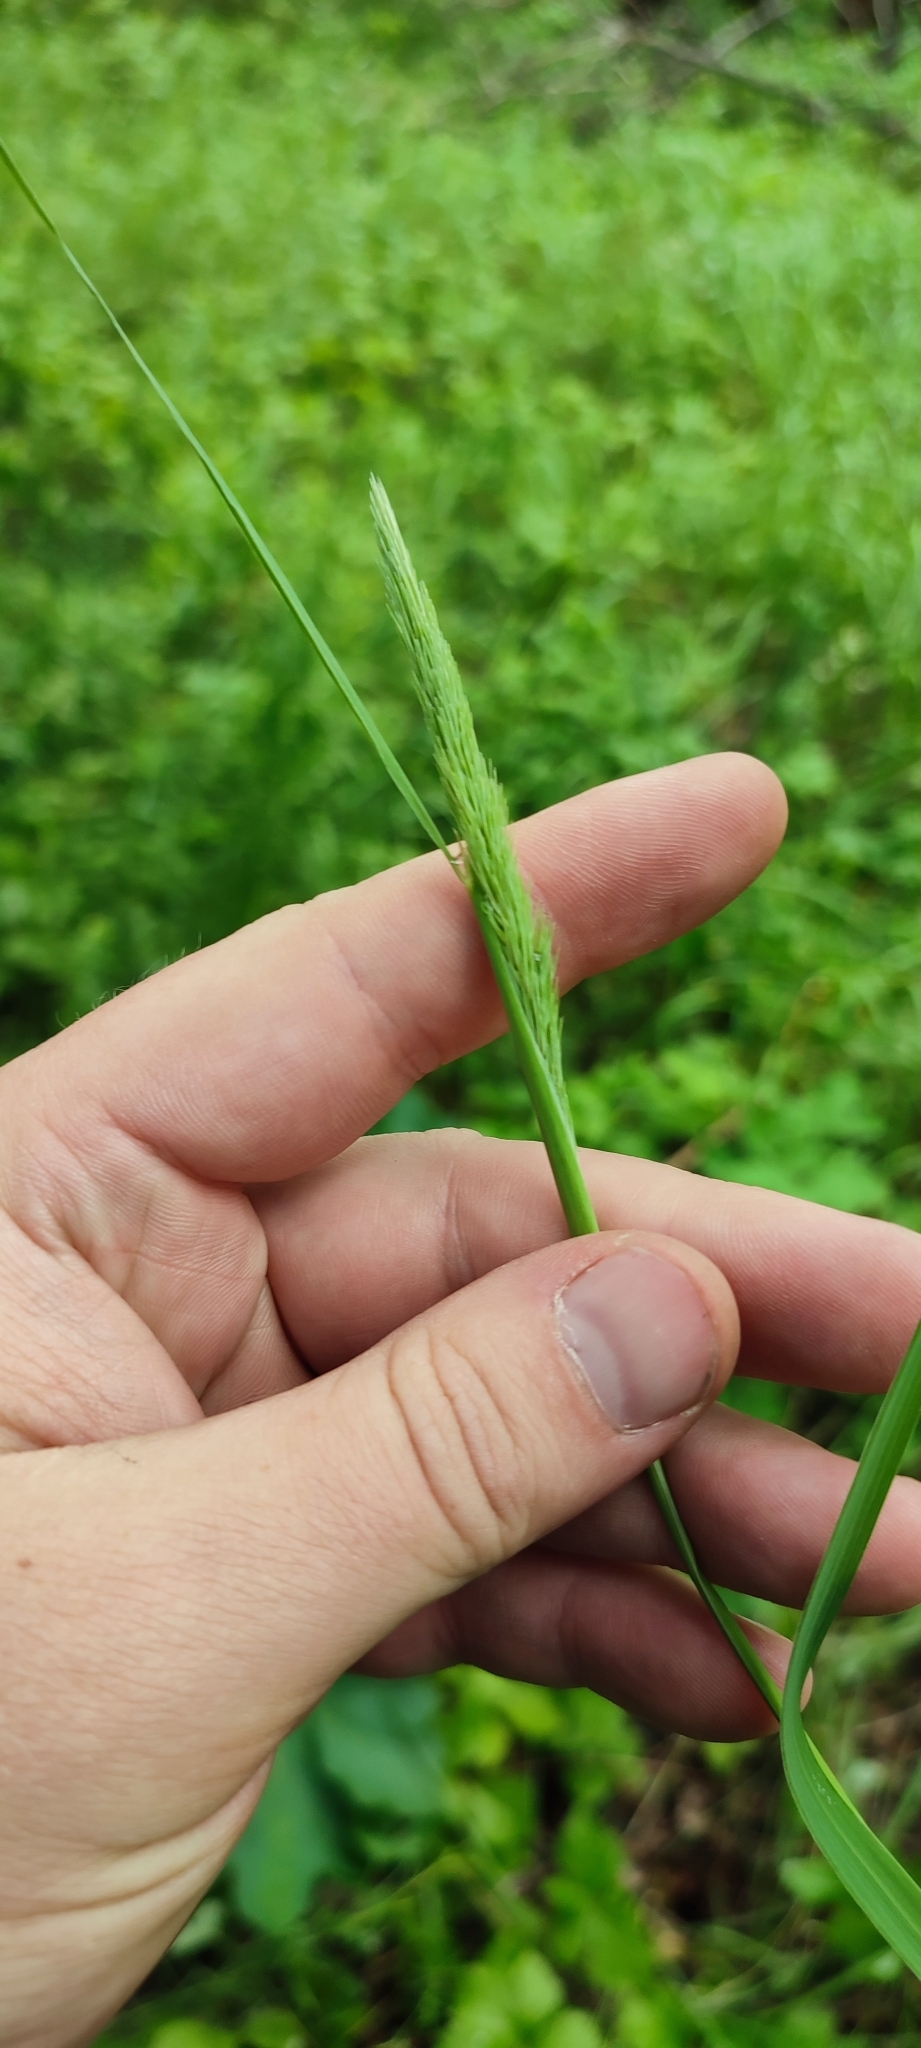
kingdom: Plantae
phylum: Tracheophyta
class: Liliopsida
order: Poales
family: Poaceae
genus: Calamagrostis
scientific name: Calamagrostis epigejos
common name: Wood small-reed
